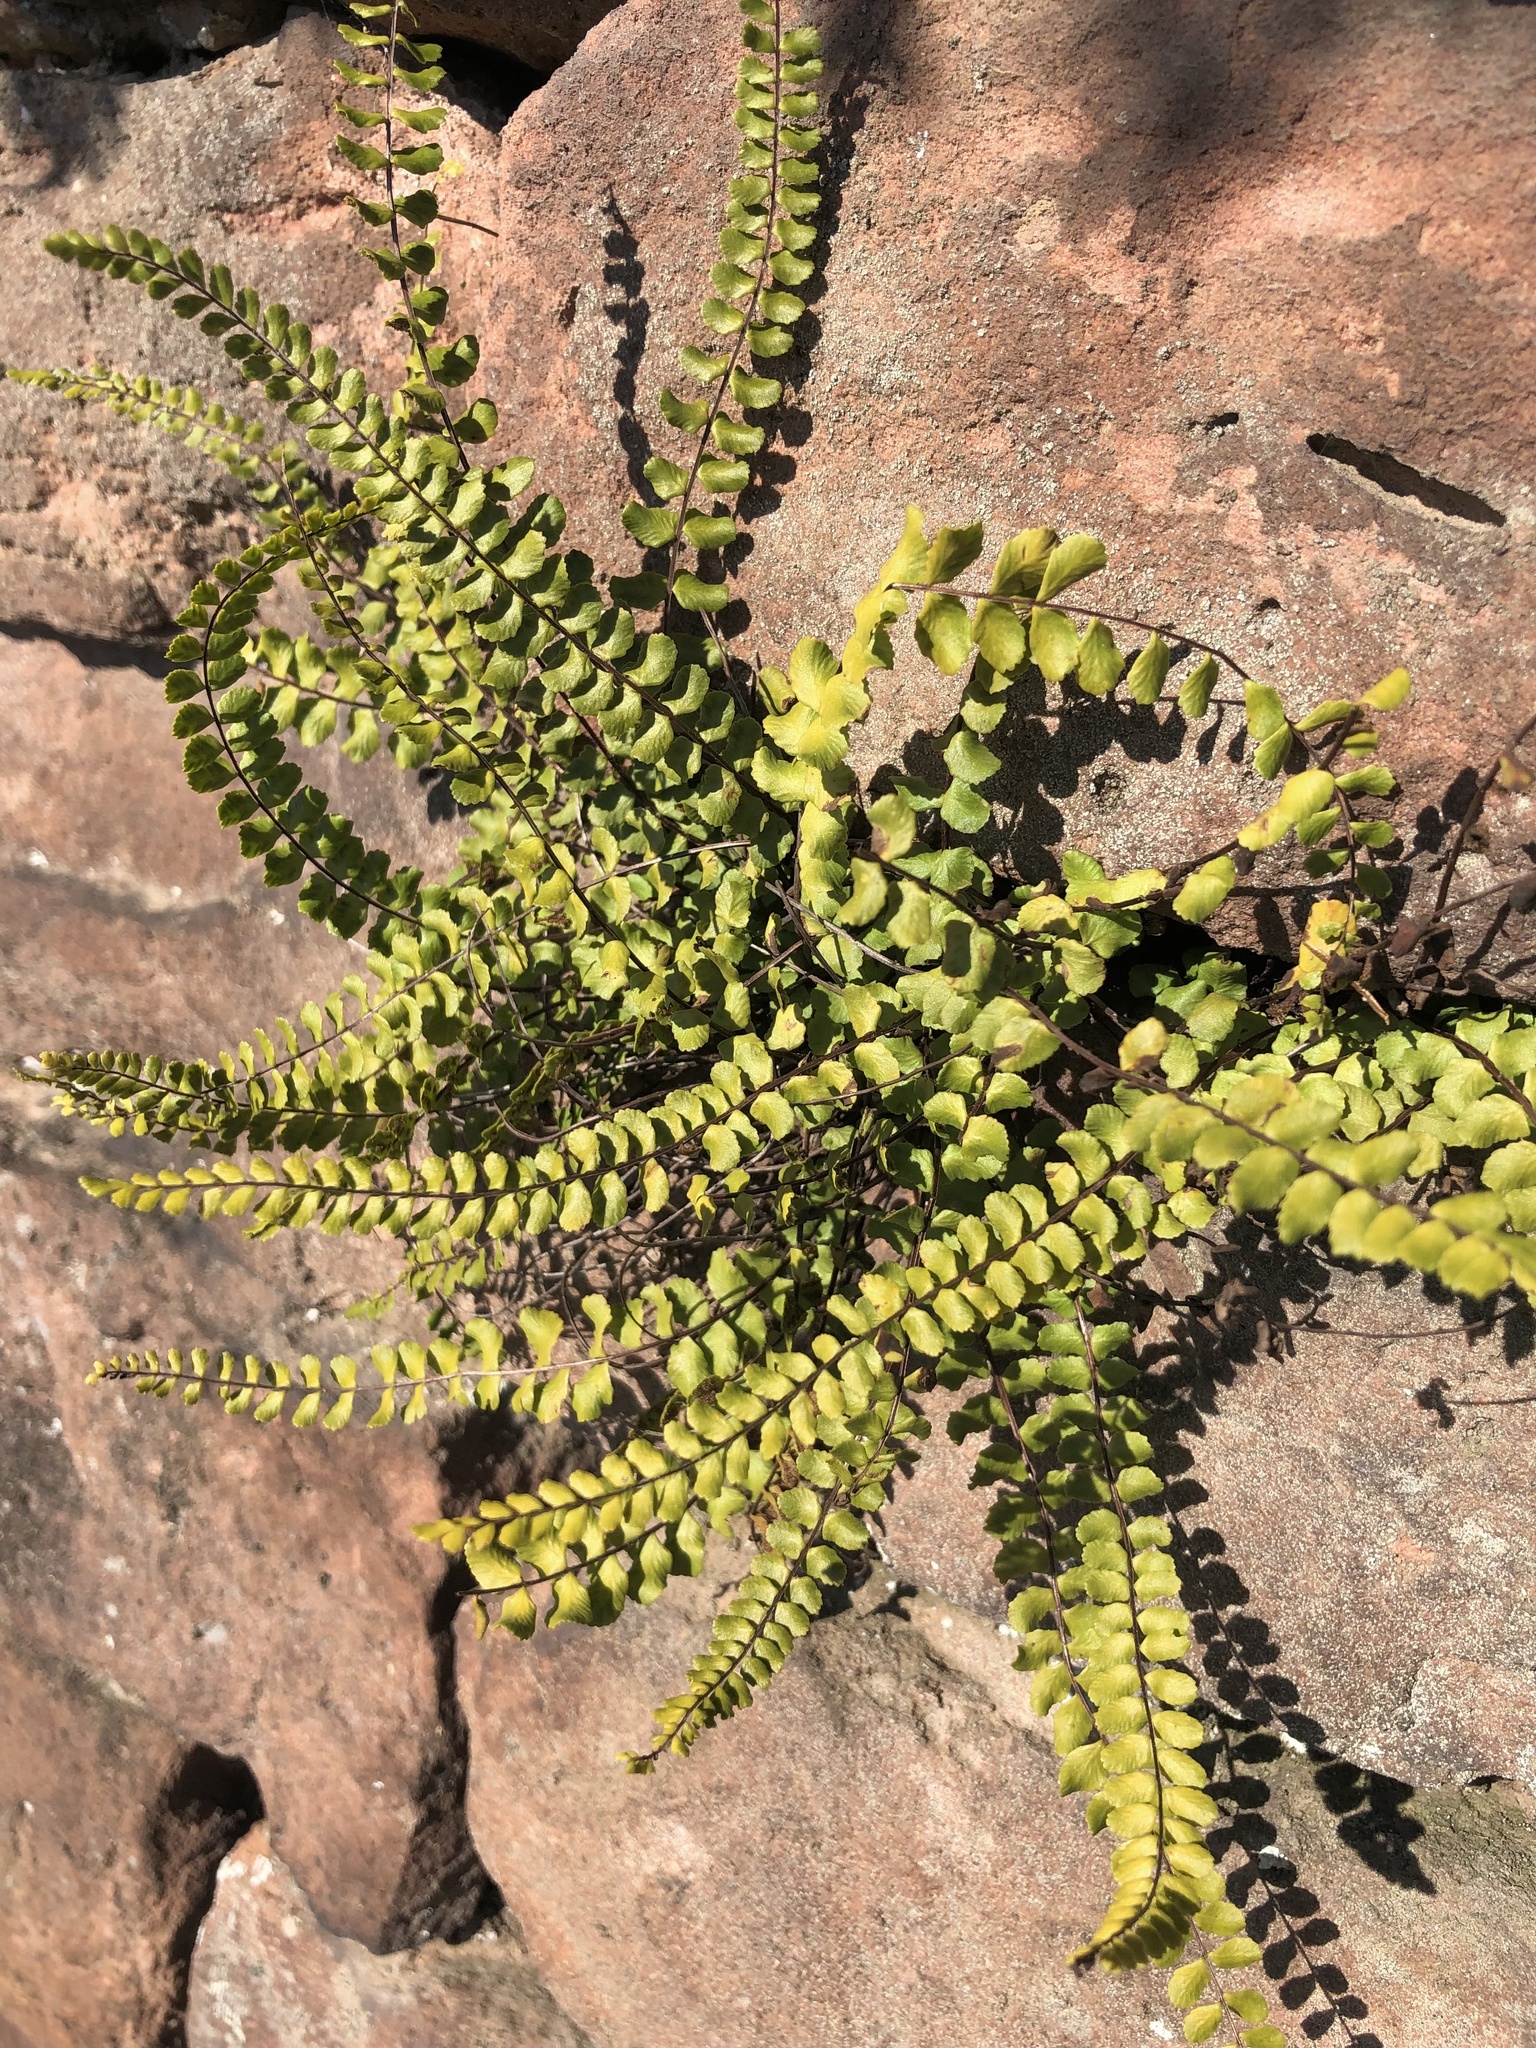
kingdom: Plantae
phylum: Tracheophyta
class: Polypodiopsida
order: Polypodiales
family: Aspleniaceae
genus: Asplenium
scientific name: Asplenium trichomanes
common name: Maidenhair spleenwort
